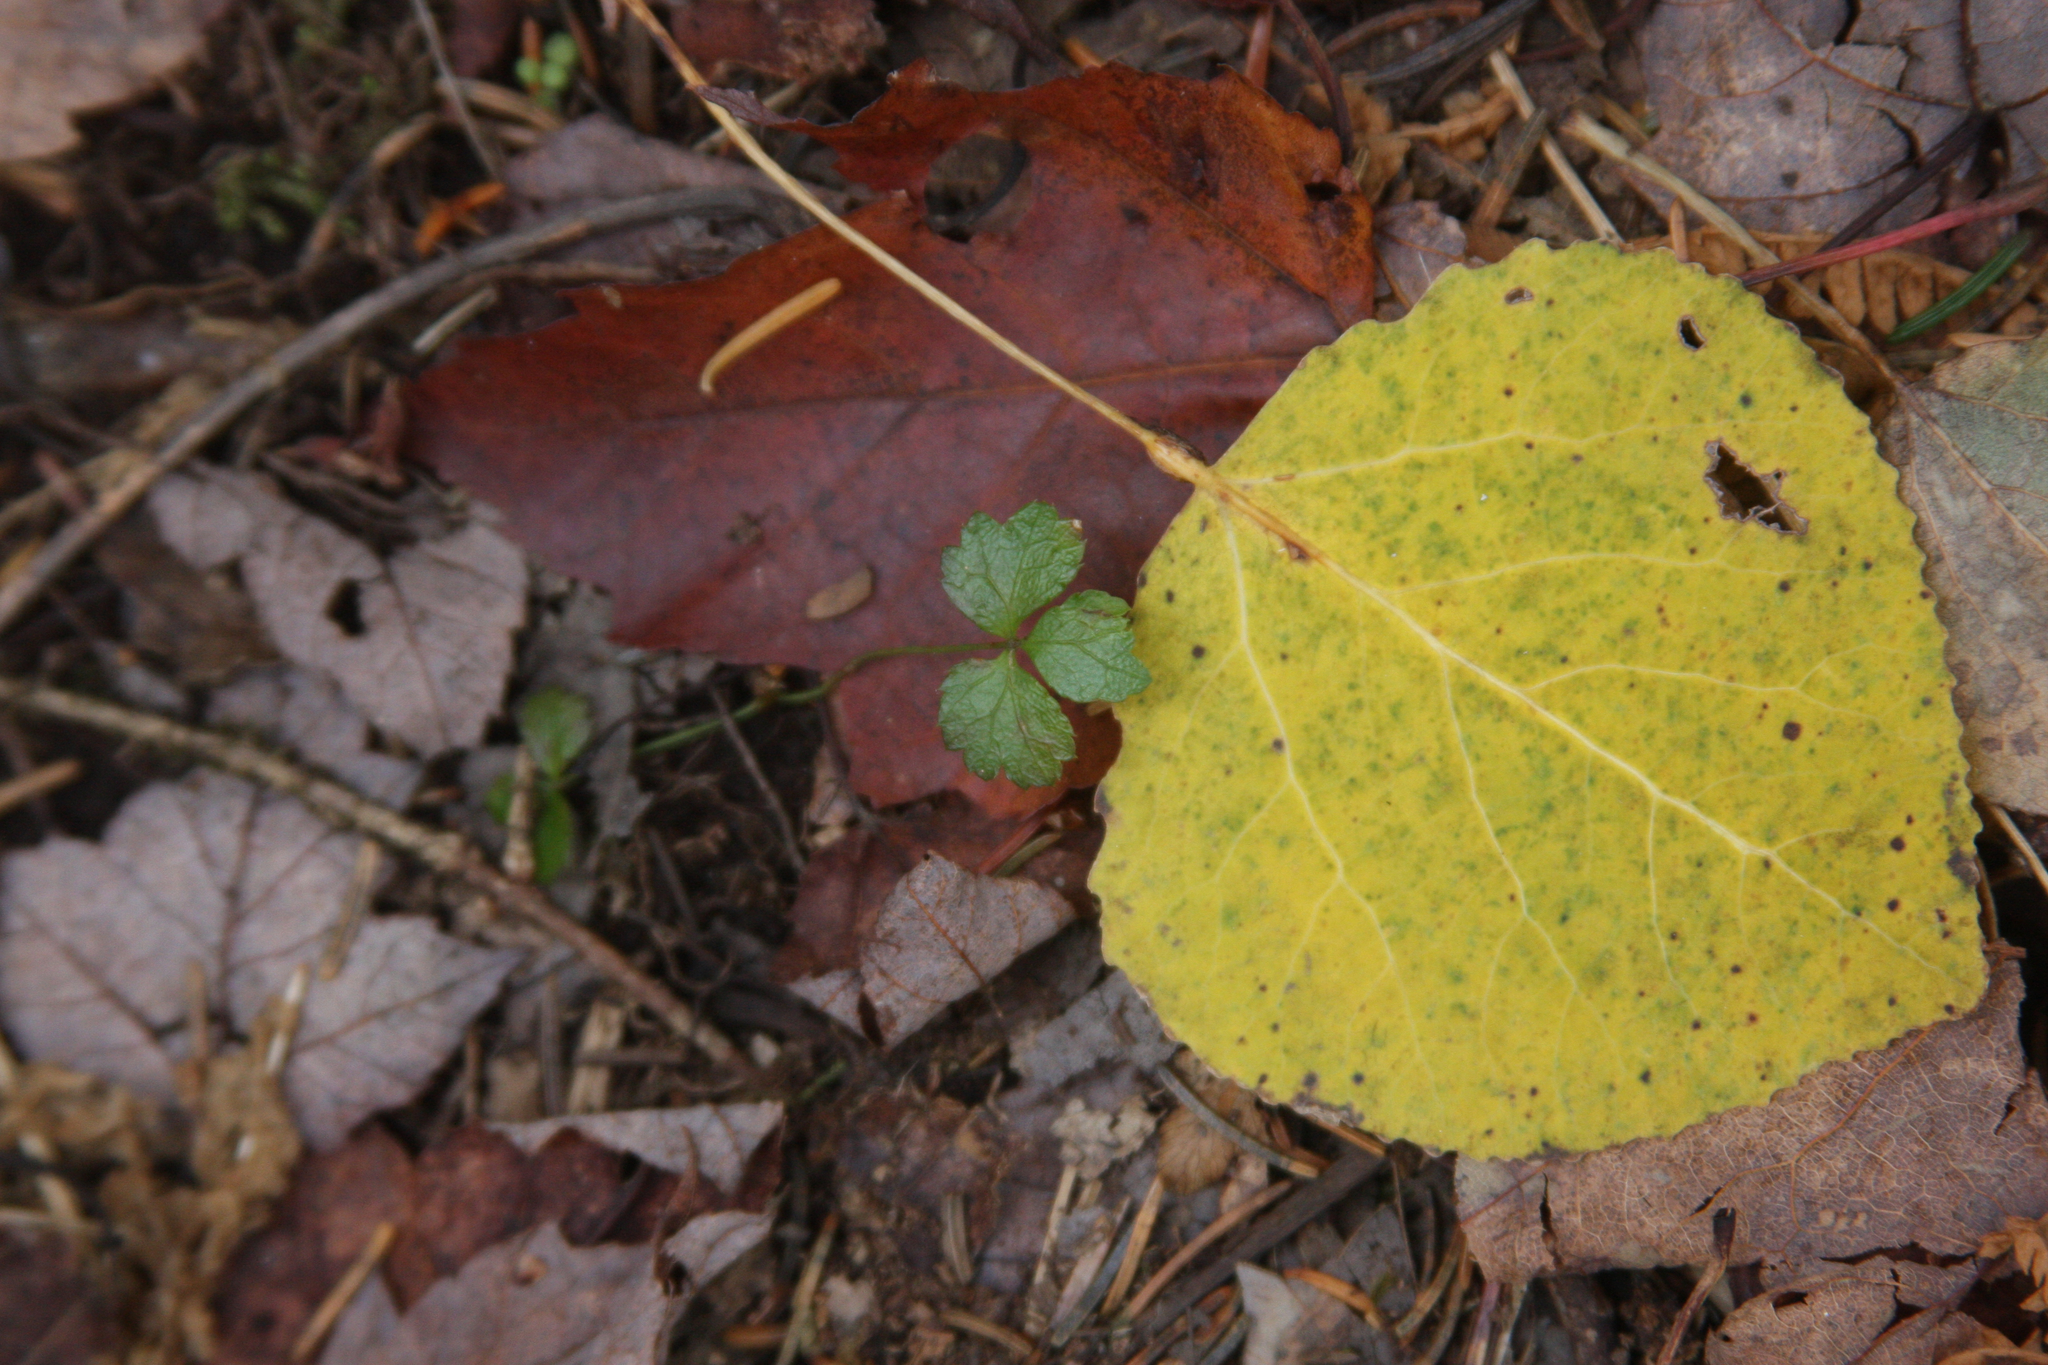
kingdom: Plantae
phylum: Tracheophyta
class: Magnoliopsida
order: Ranunculales
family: Ranunculaceae
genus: Coptis
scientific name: Coptis trifolia
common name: Canker-root
